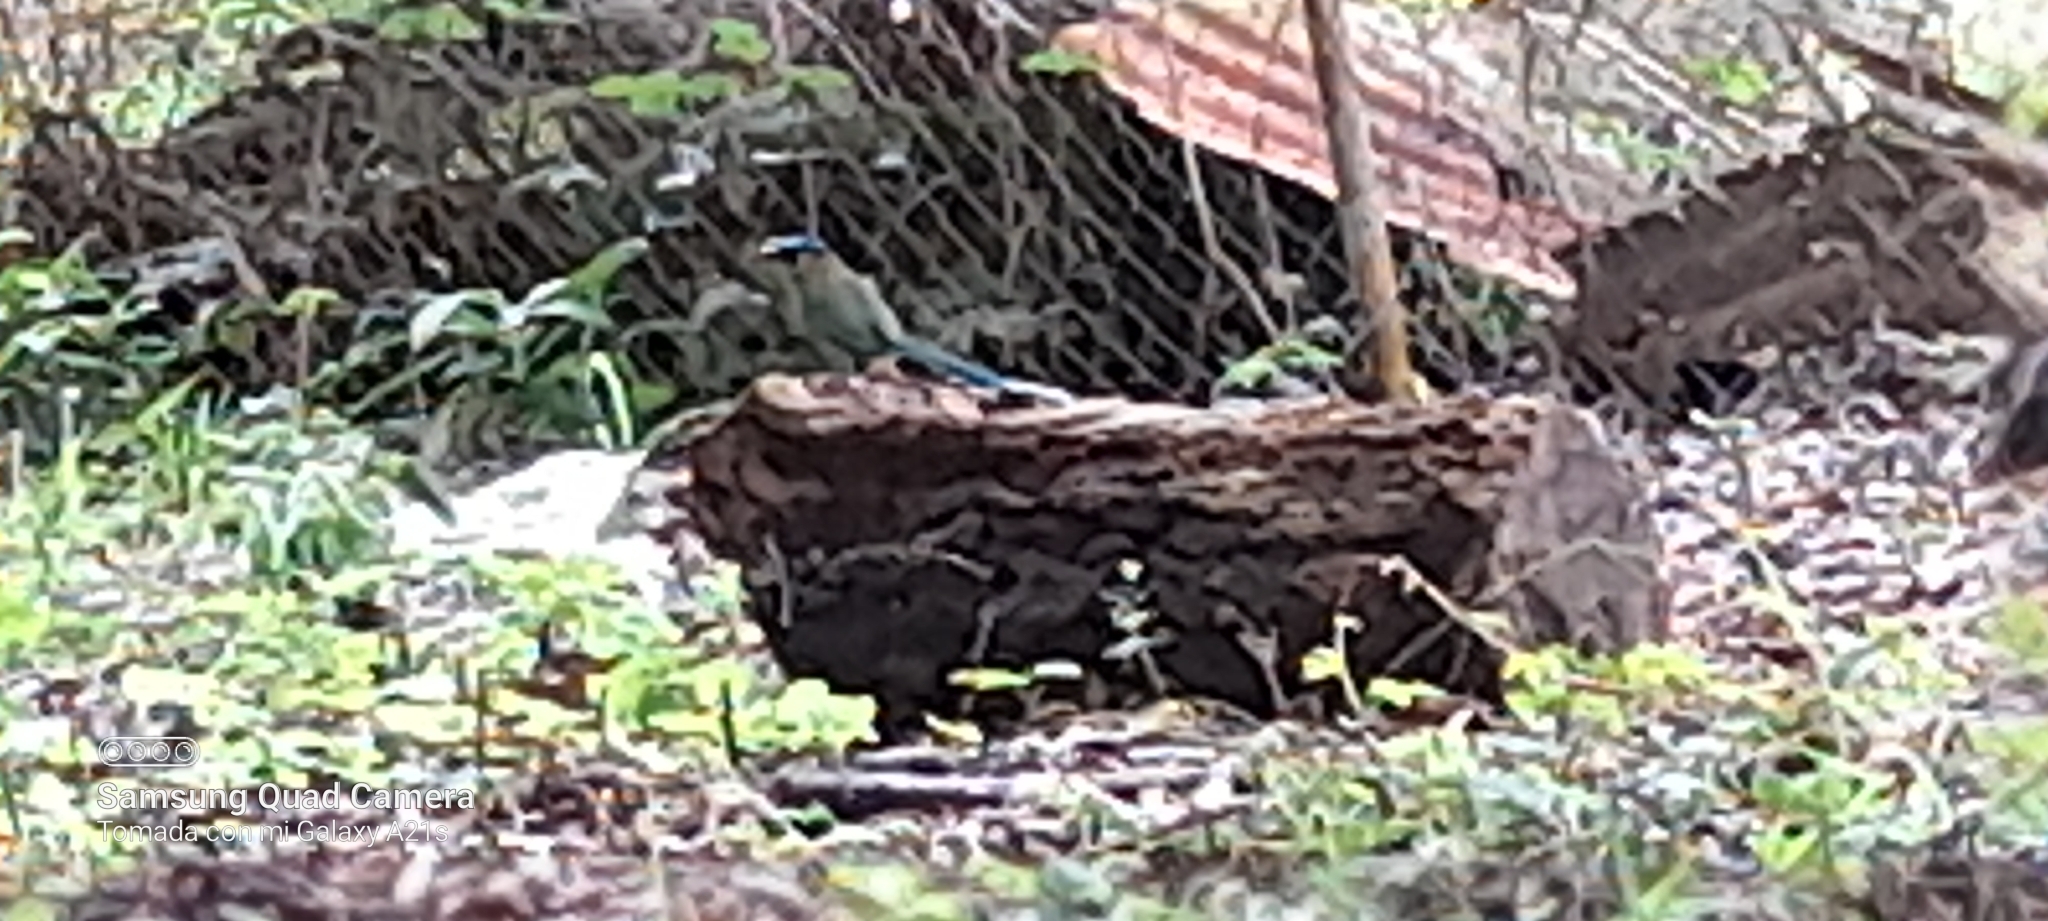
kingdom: Animalia
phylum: Chordata
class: Aves
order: Coraciiformes
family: Momotidae
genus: Momotus
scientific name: Momotus lessonii
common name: Lesson's motmot
